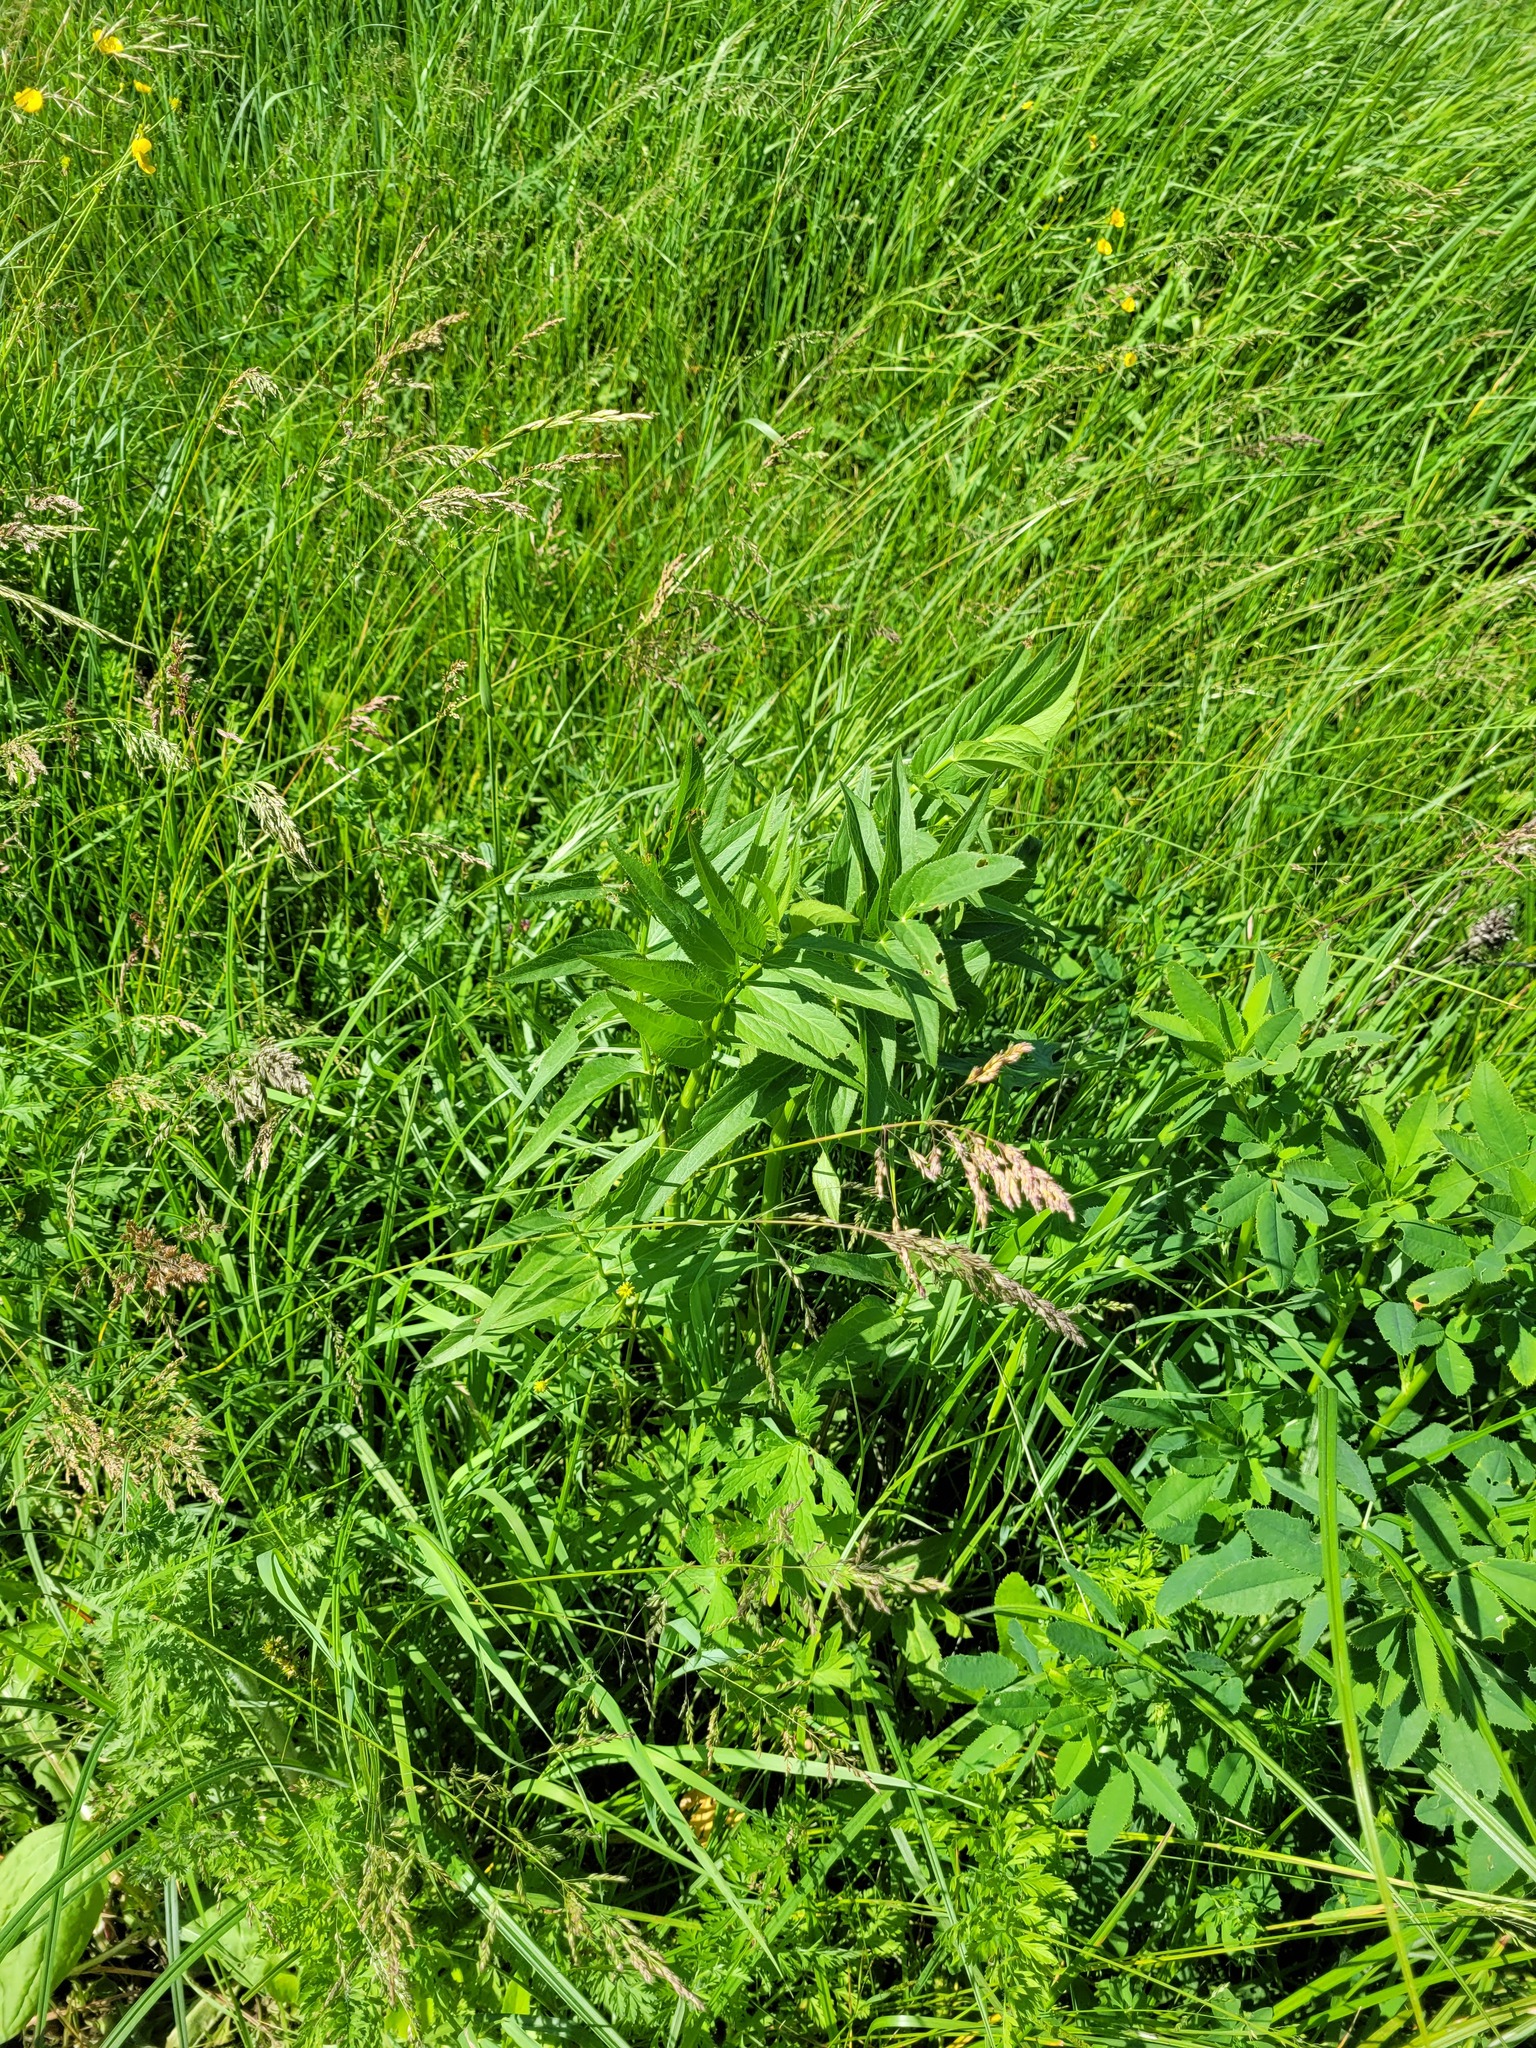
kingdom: Plantae
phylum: Tracheophyta
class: Magnoliopsida
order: Apiales
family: Apiaceae
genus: Sium
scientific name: Sium latifolium
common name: Greater water-parsnip
